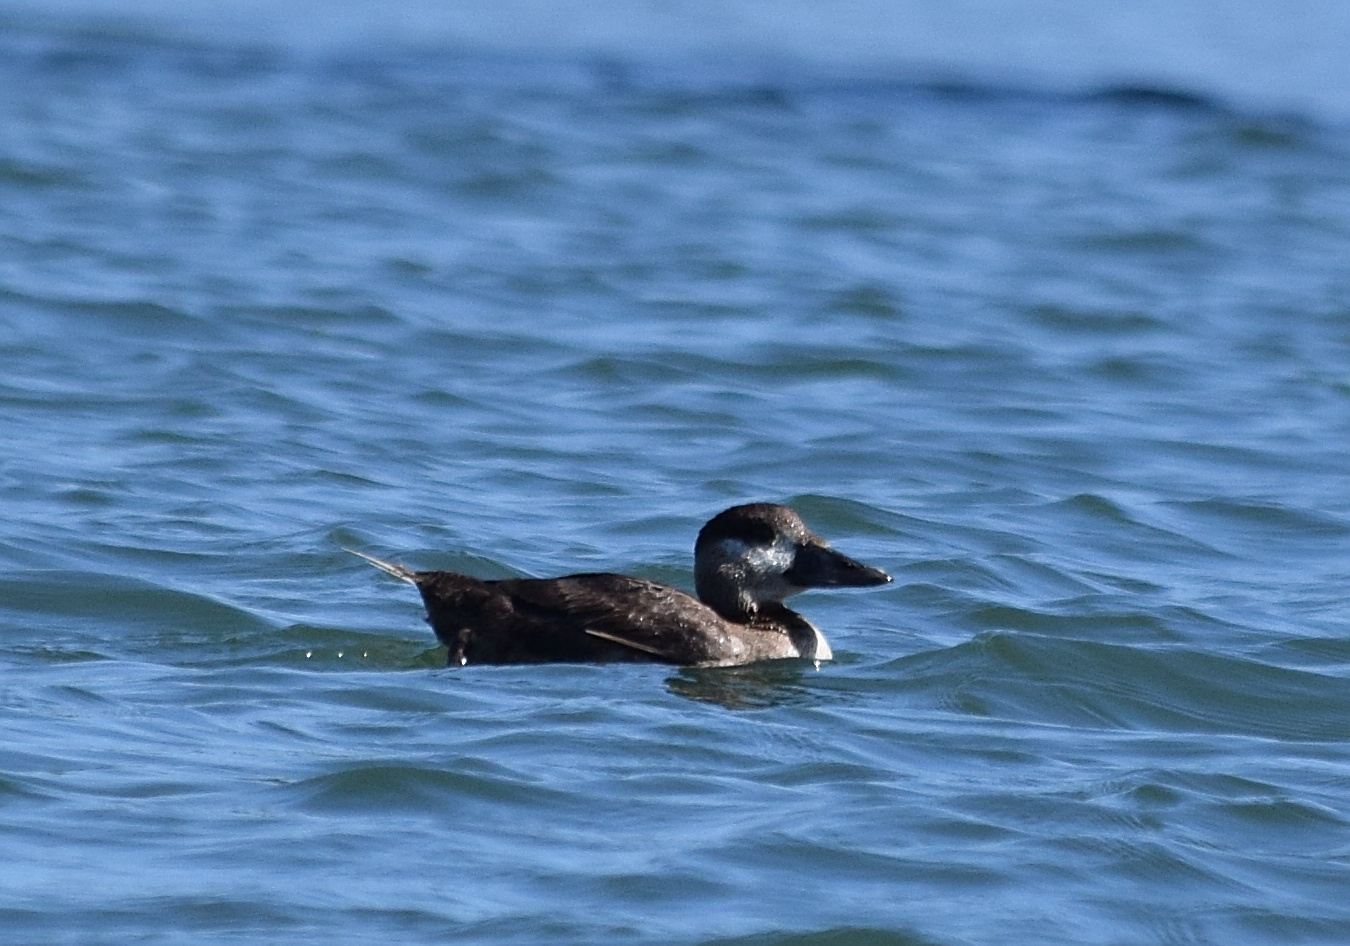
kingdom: Animalia
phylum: Chordata
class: Aves
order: Anseriformes
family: Anatidae
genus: Oxyura
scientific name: Oxyura jamaicensis
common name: Ruddy duck
